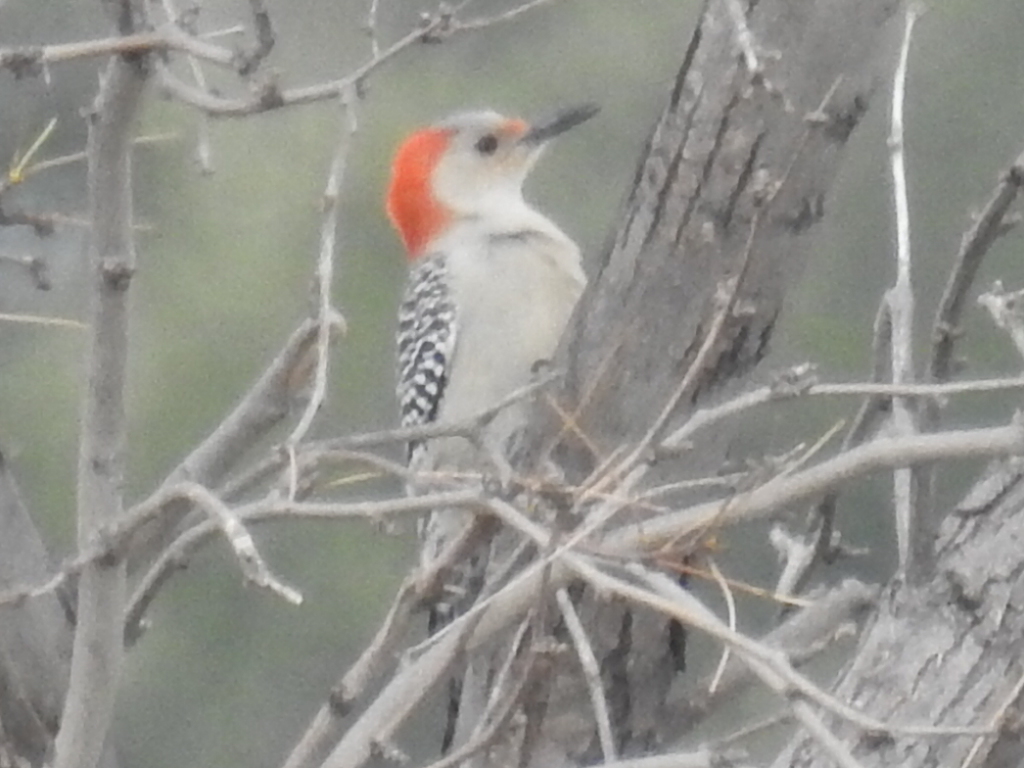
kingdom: Animalia
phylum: Chordata
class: Aves
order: Piciformes
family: Picidae
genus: Melanerpes
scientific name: Melanerpes carolinus
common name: Red-bellied woodpecker
